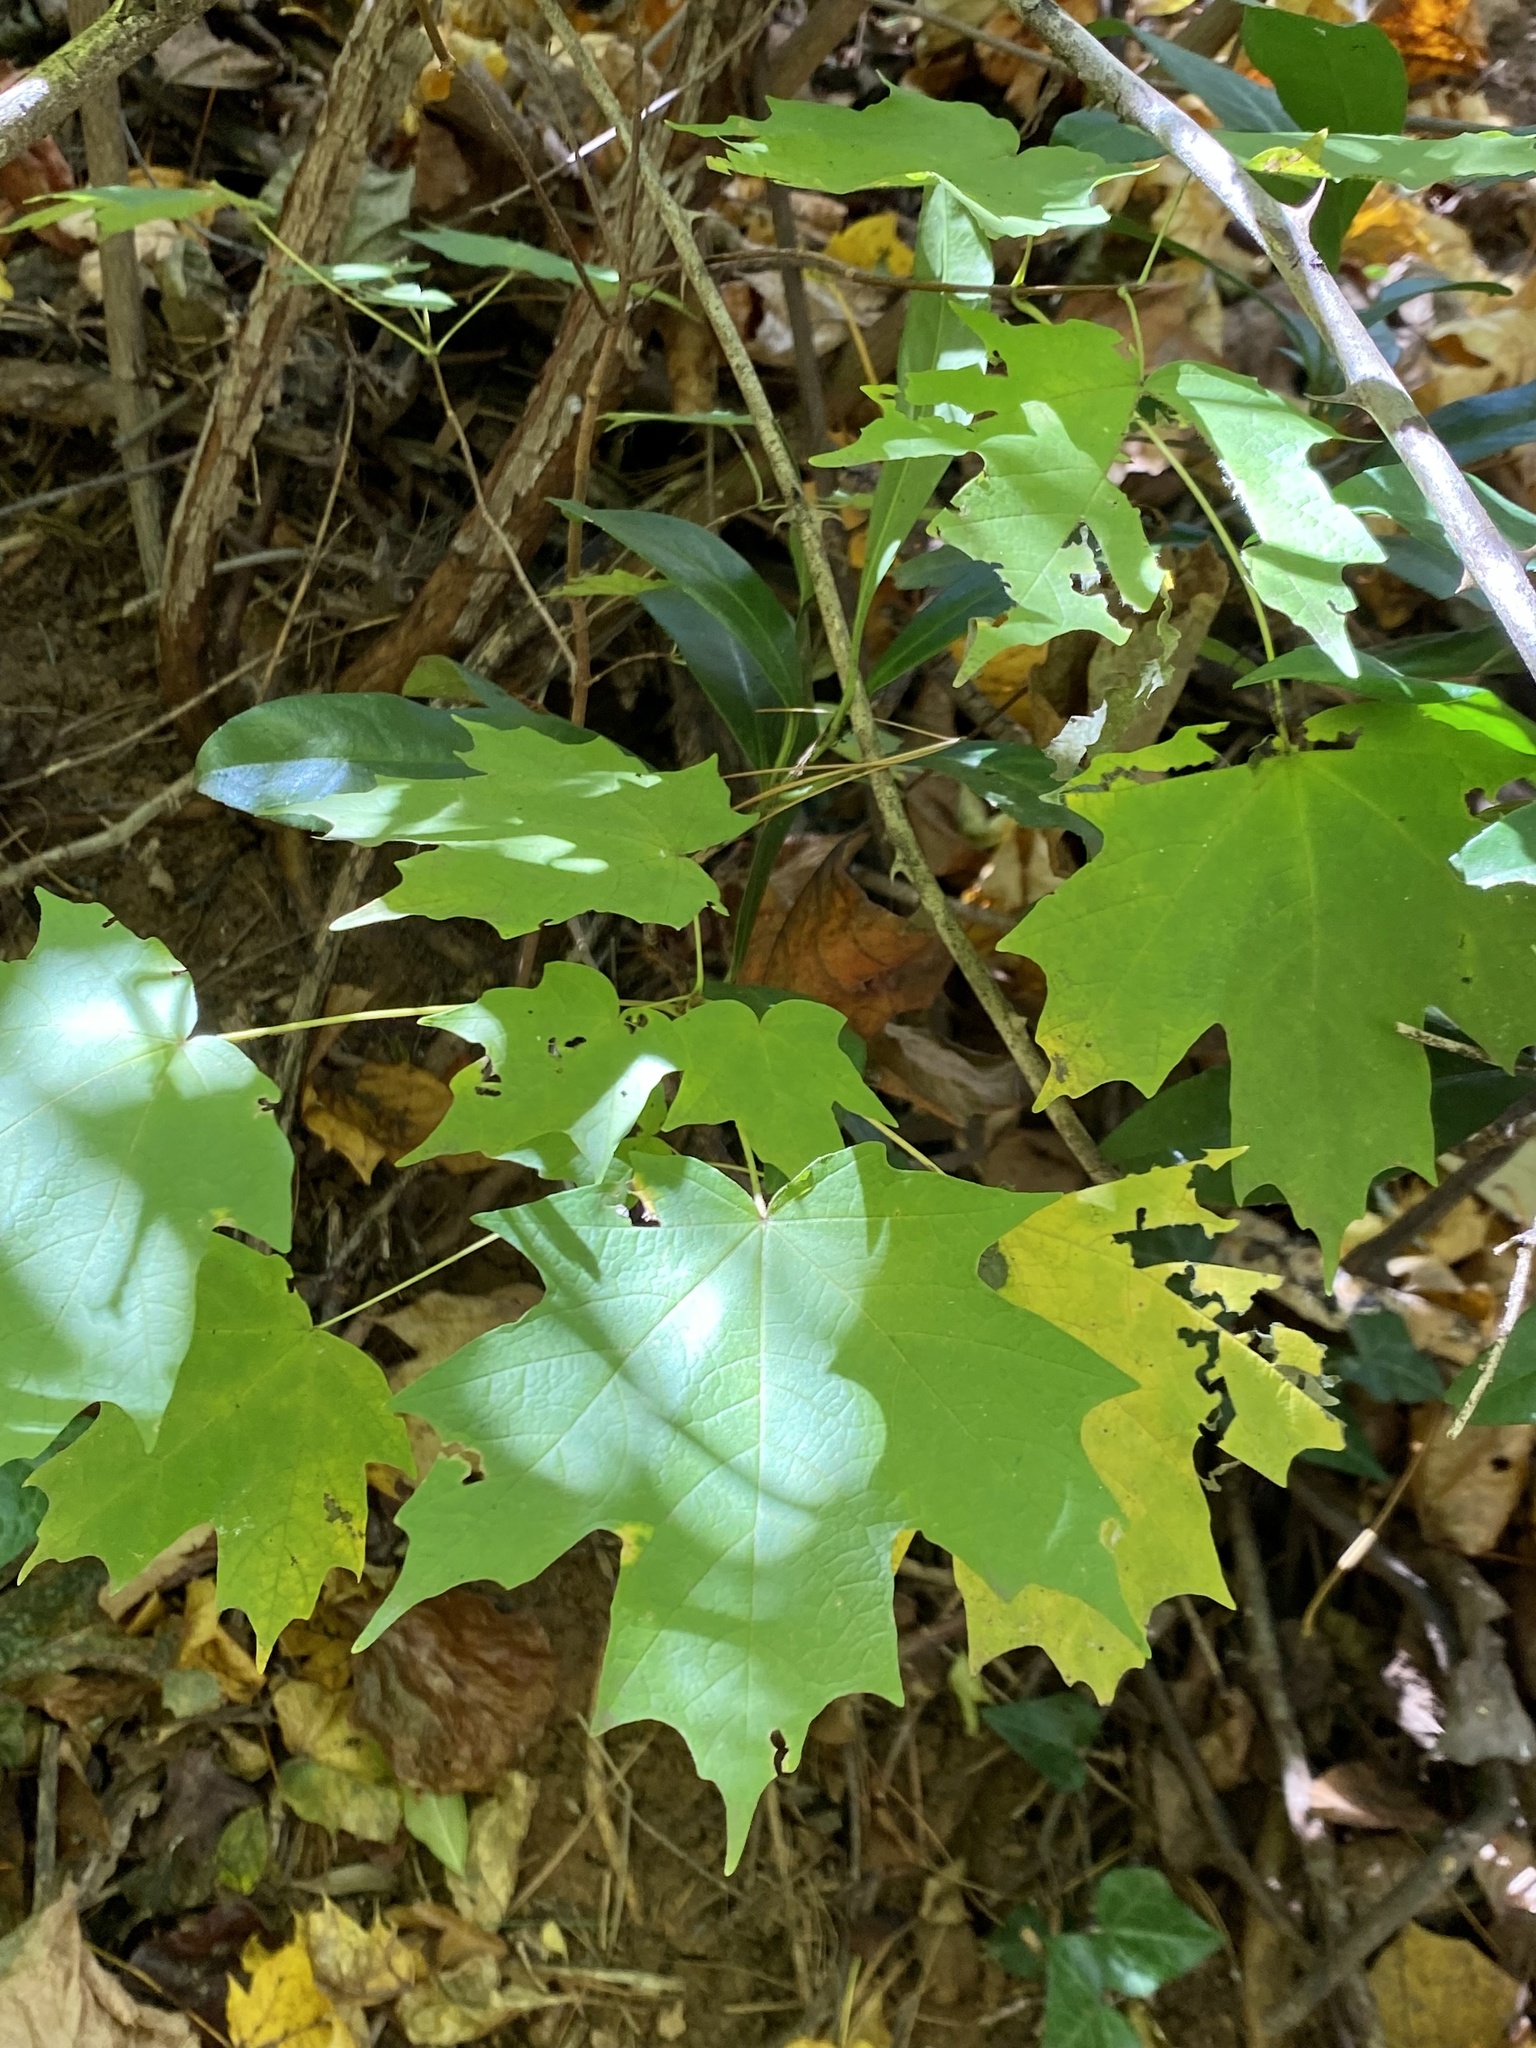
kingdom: Plantae
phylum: Tracheophyta
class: Magnoliopsida
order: Sapindales
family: Sapindaceae
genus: Acer
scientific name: Acer saccharum
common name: Sugar maple
